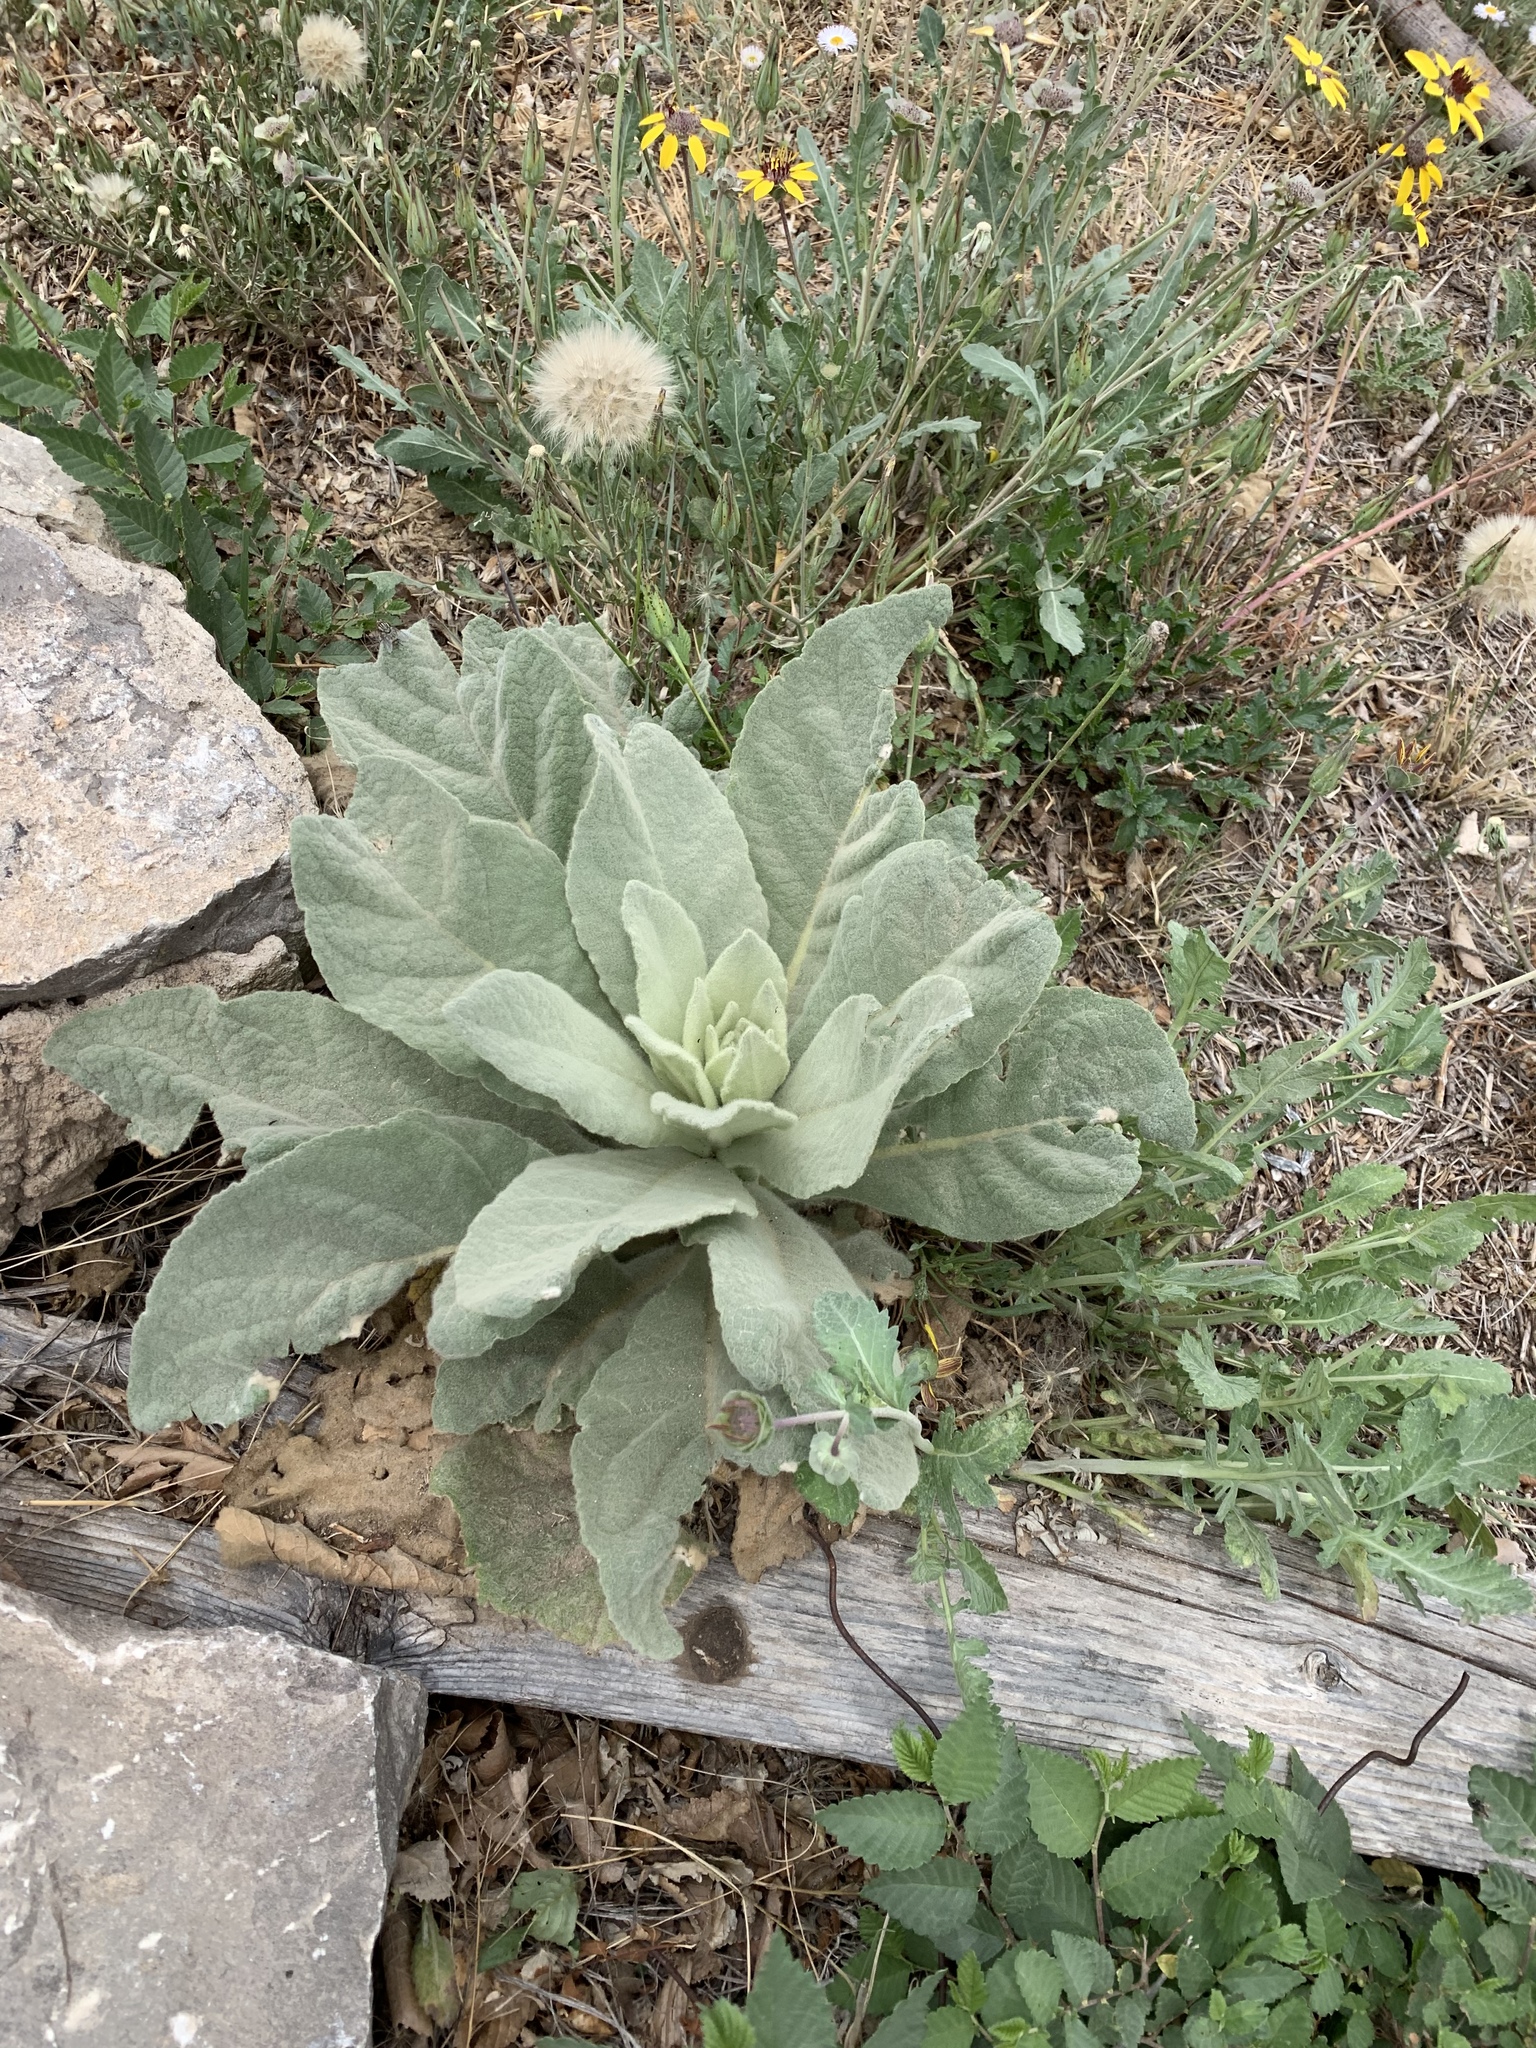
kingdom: Plantae
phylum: Tracheophyta
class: Magnoliopsida
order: Lamiales
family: Scrophulariaceae
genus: Verbascum
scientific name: Verbascum thapsus
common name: Common mullein
